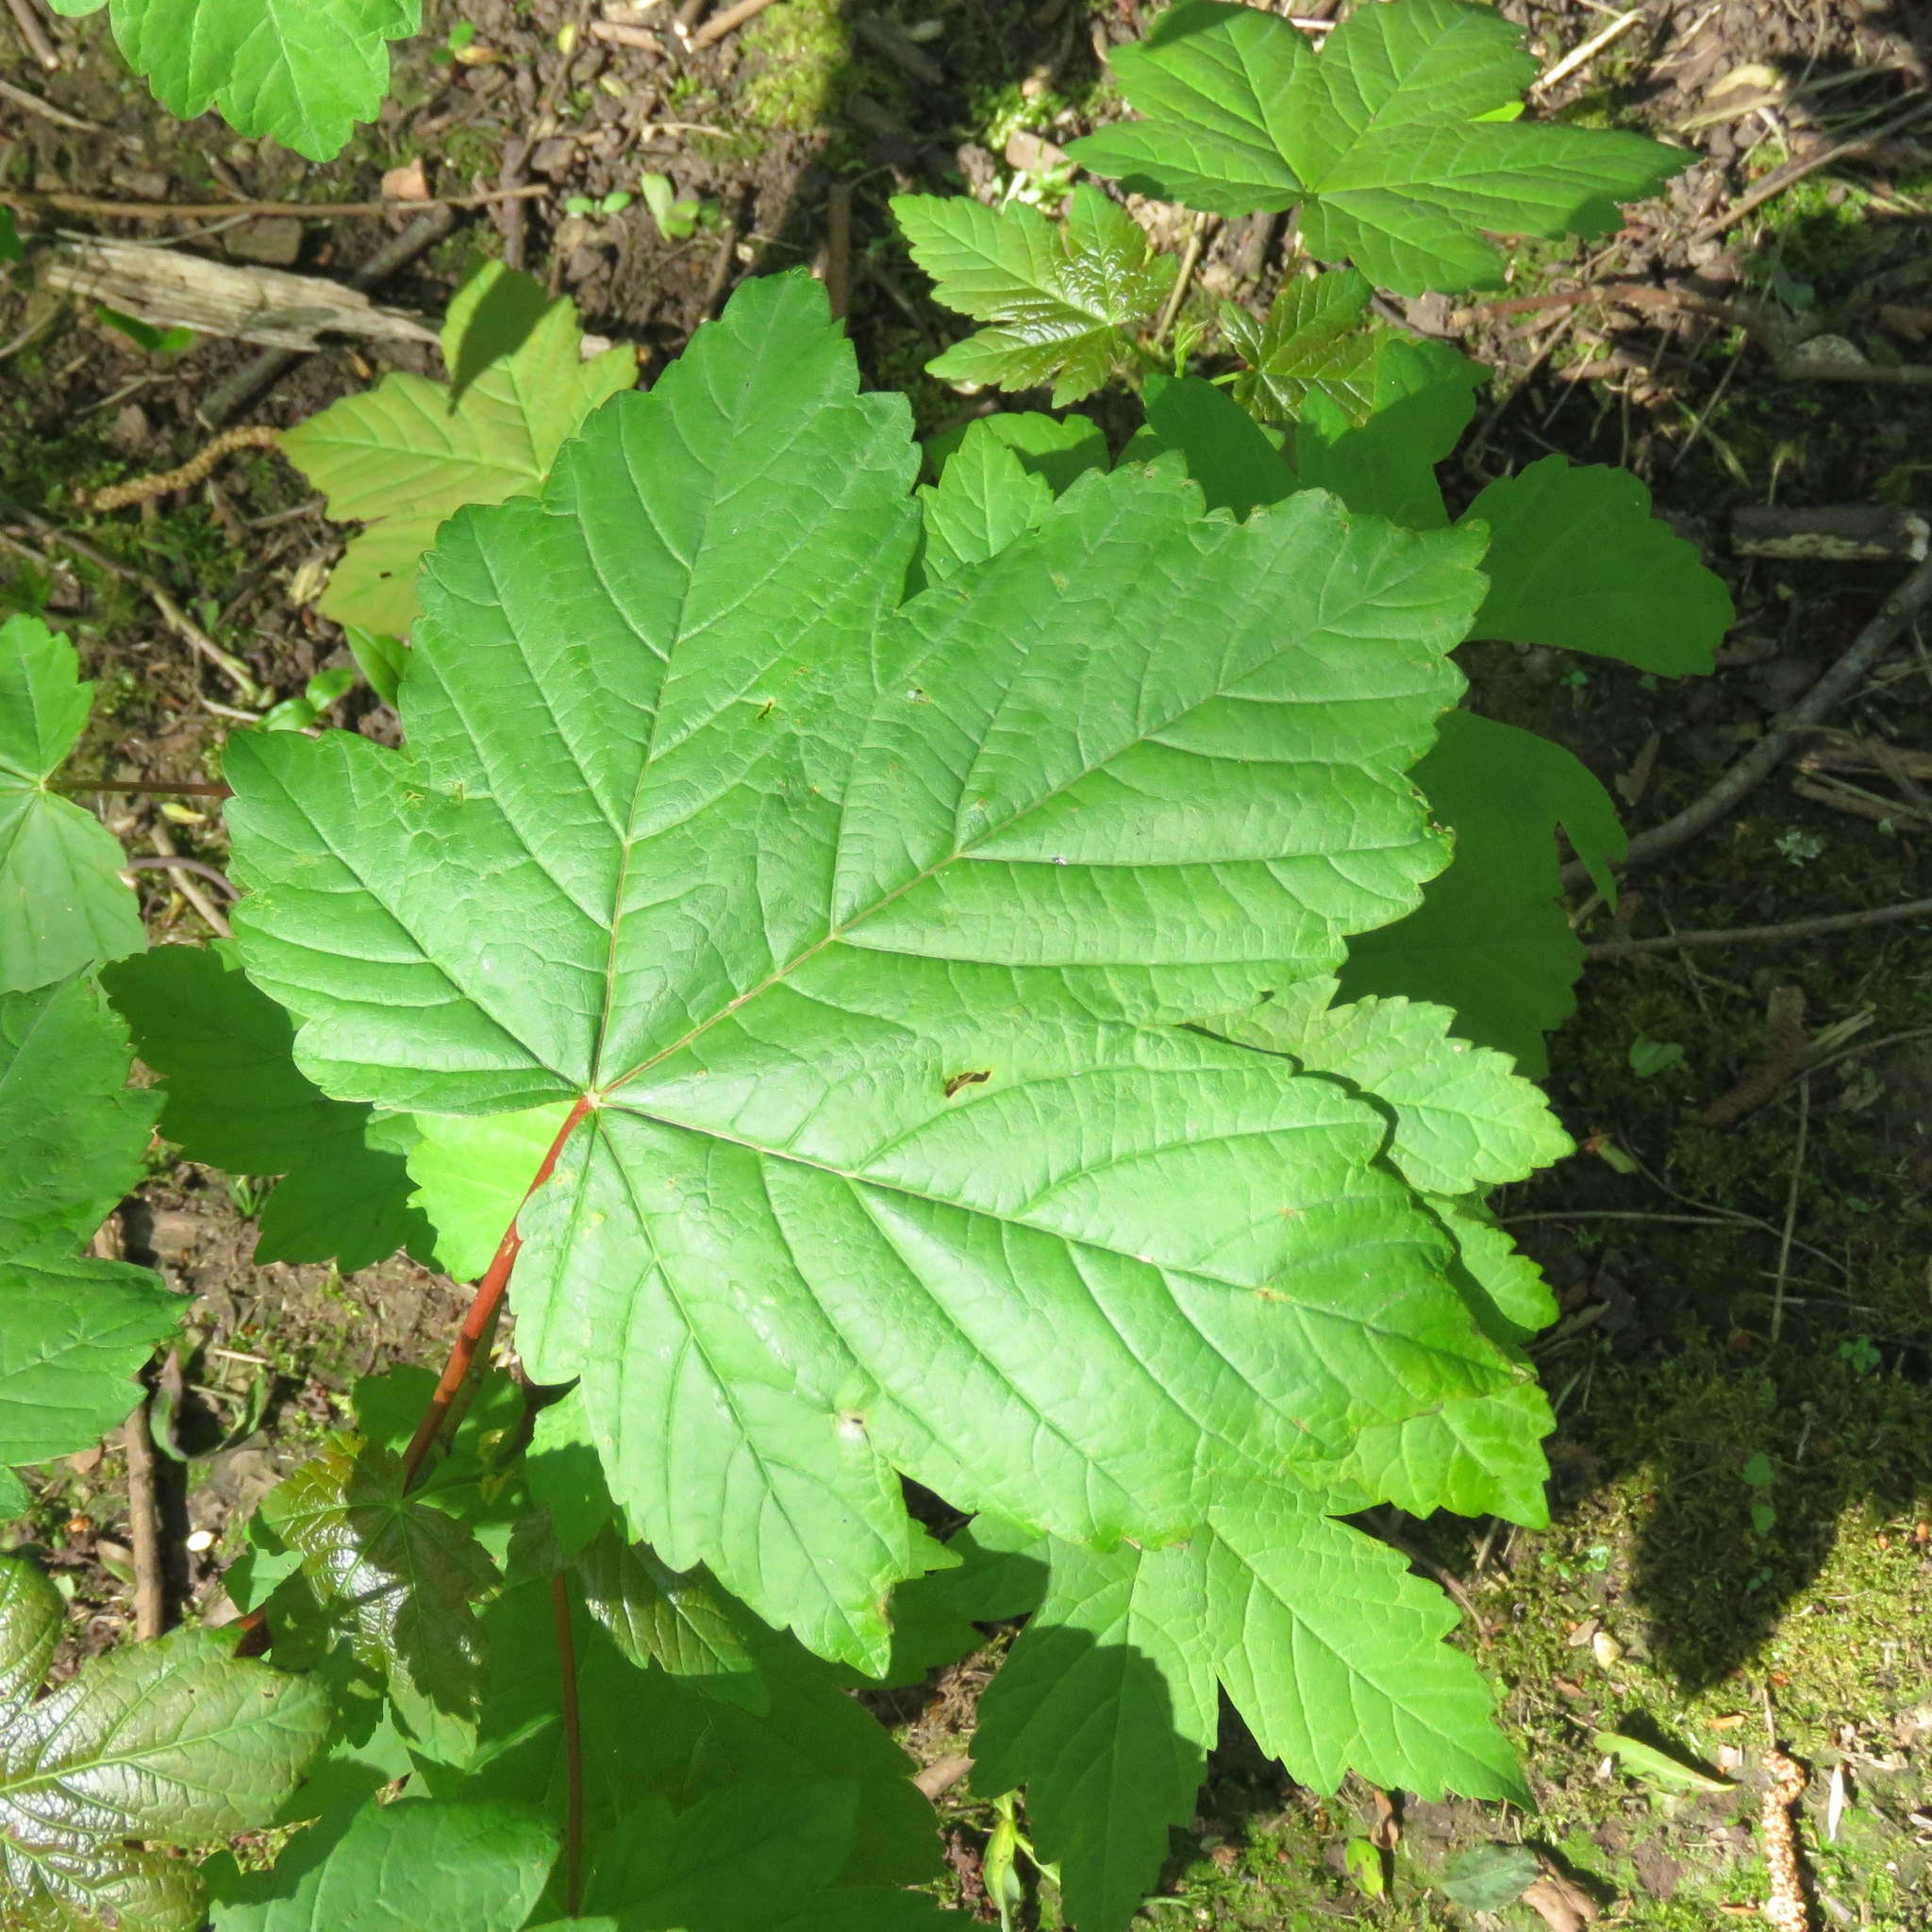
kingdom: Plantae
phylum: Tracheophyta
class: Magnoliopsida
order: Sapindales
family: Sapindaceae
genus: Acer
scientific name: Acer pseudoplatanus
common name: Sycamore
